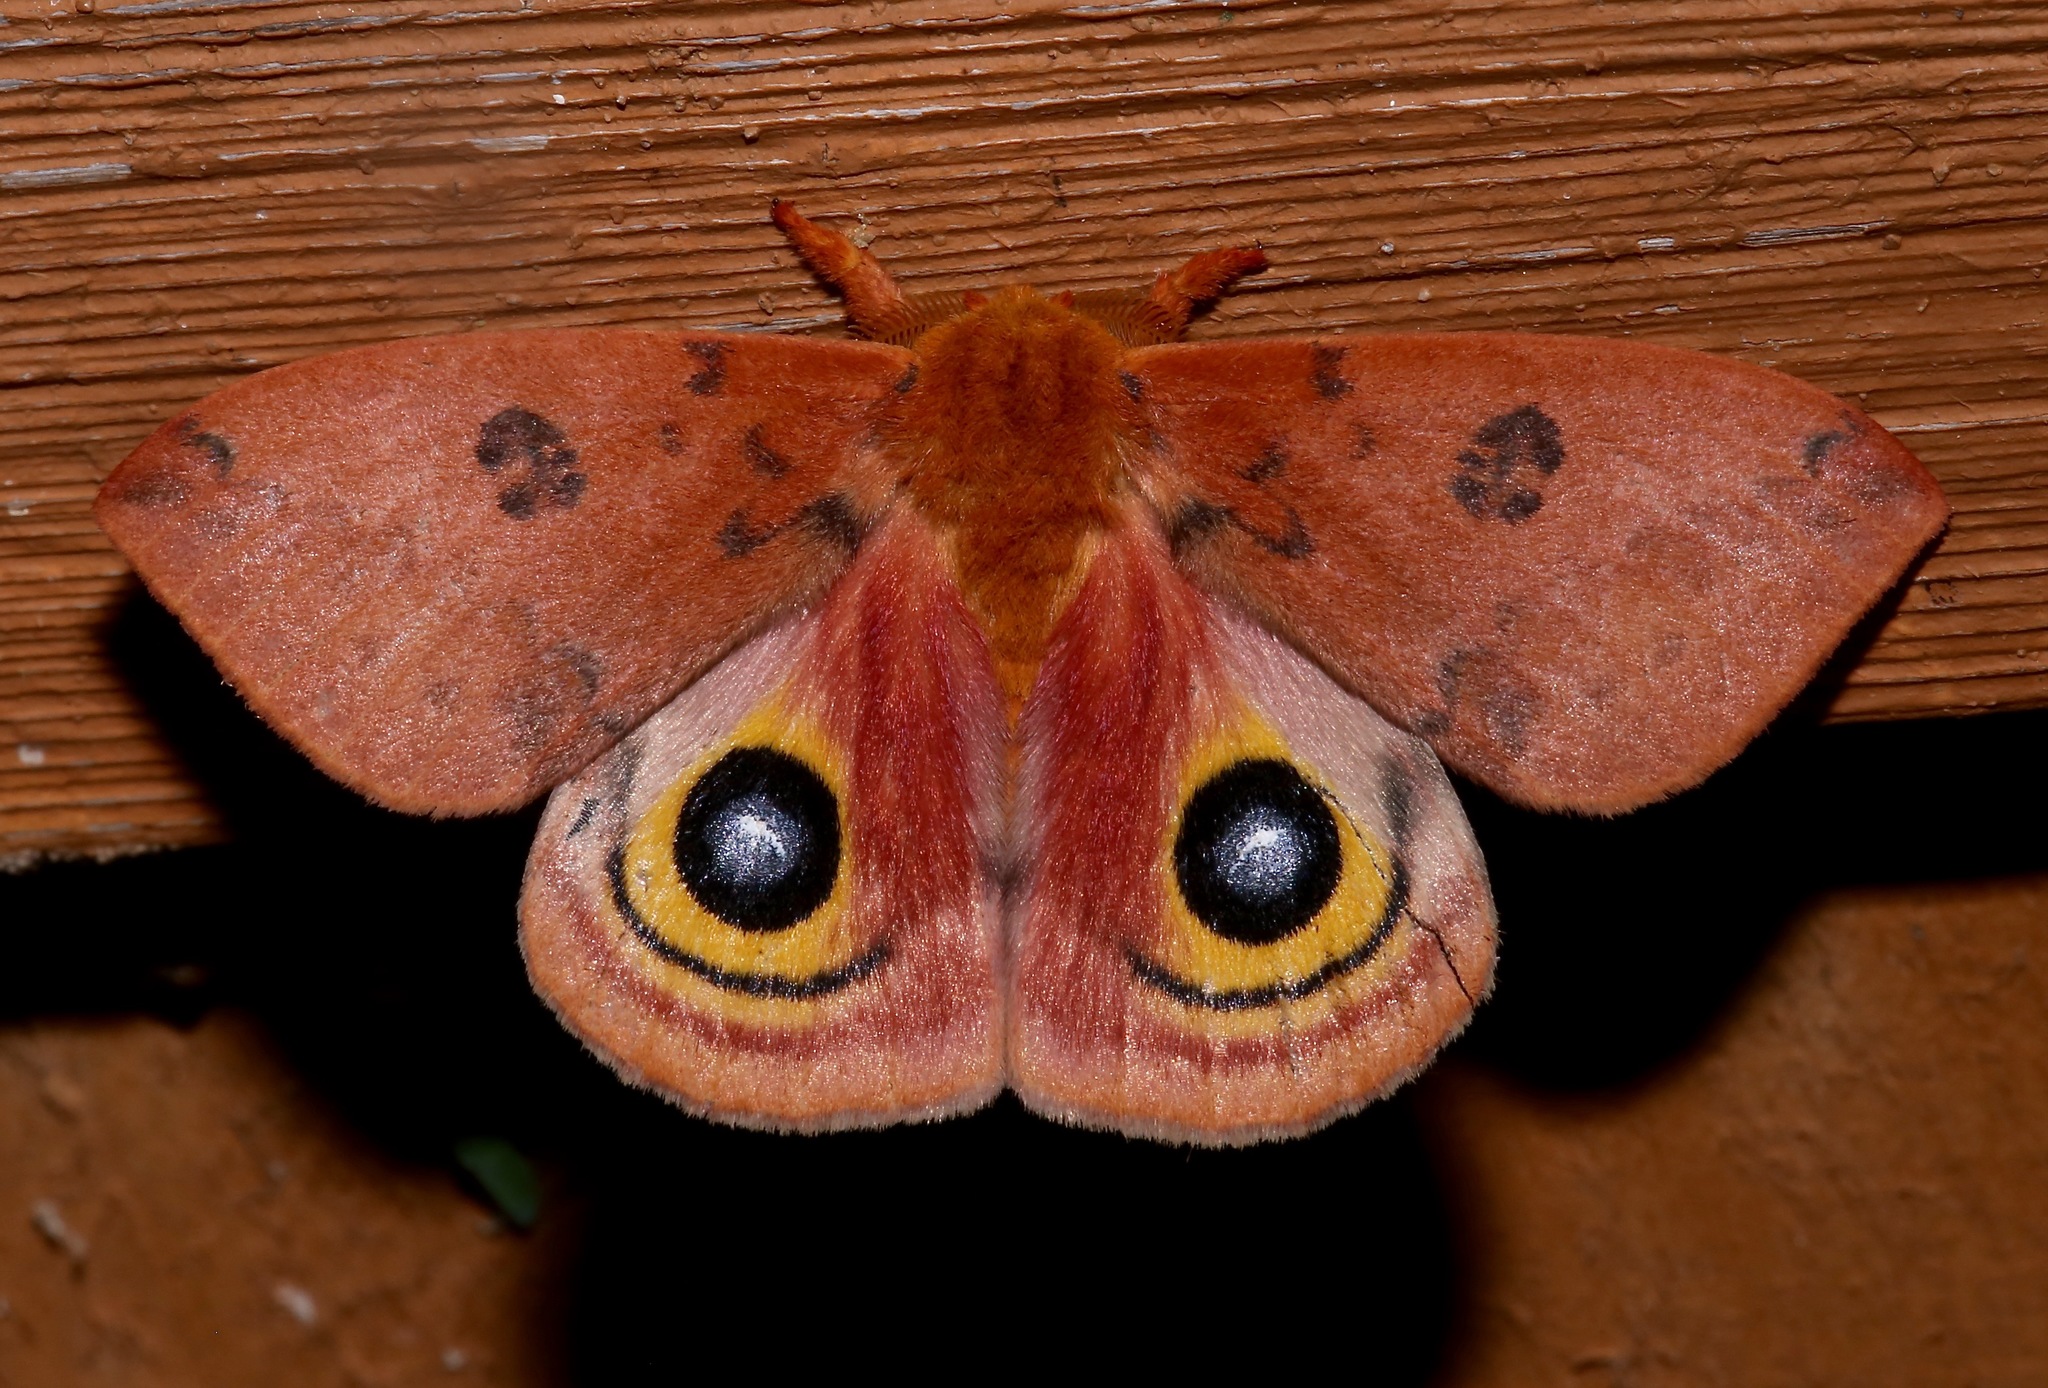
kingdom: Animalia
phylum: Arthropoda
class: Insecta
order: Lepidoptera
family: Saturniidae
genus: Automeris
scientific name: Automeris io
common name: Io moth
